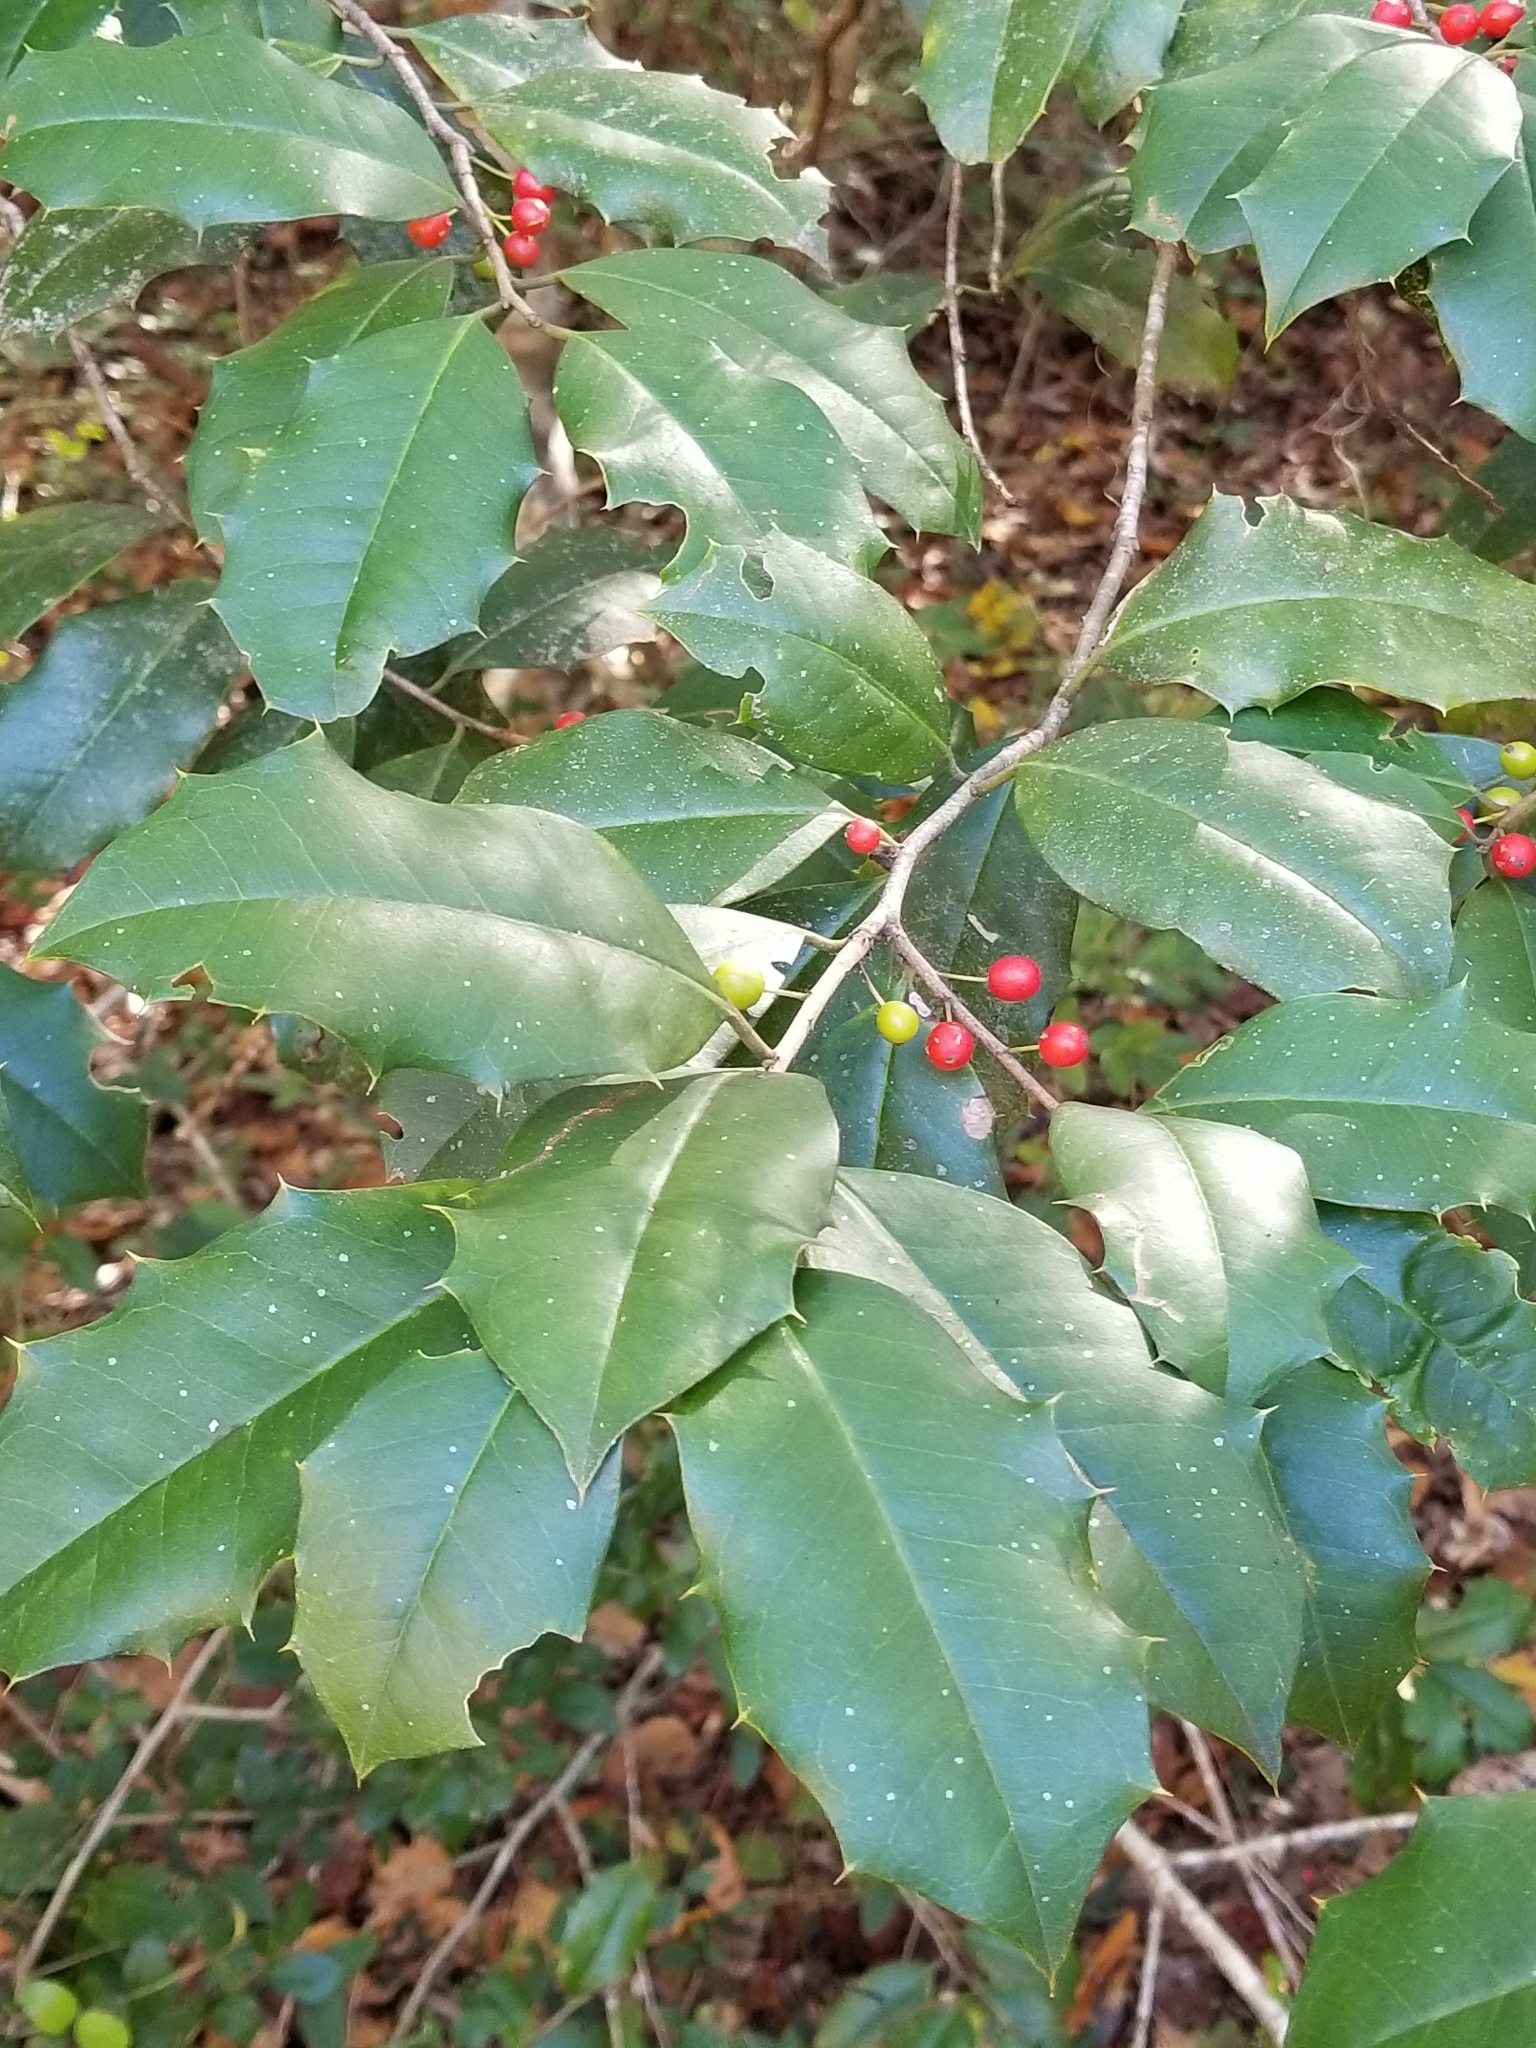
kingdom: Plantae
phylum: Tracheophyta
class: Magnoliopsida
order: Aquifoliales
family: Aquifoliaceae
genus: Ilex
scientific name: Ilex opaca
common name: American holly
